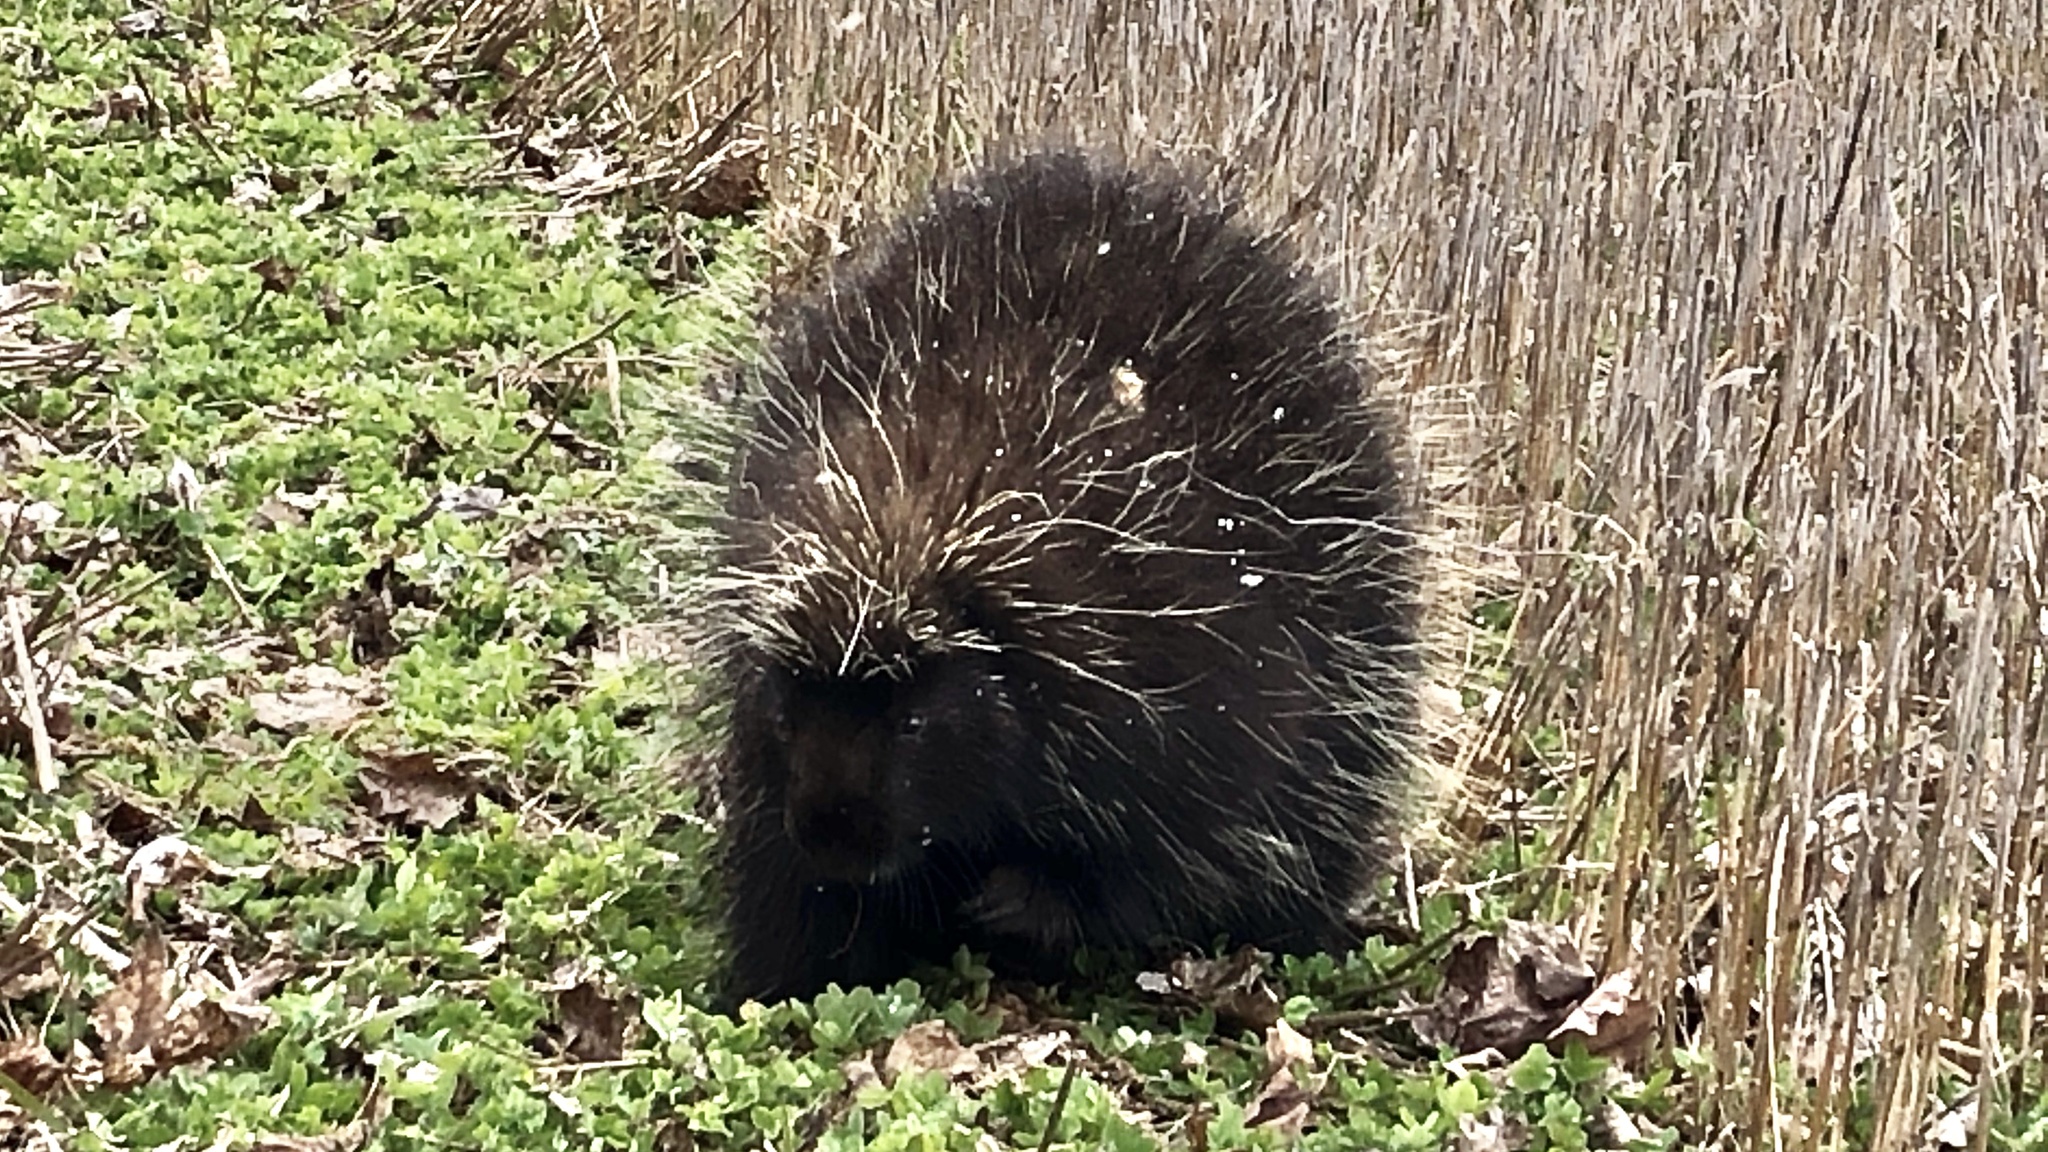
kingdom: Animalia
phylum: Chordata
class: Mammalia
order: Rodentia
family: Erethizontidae
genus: Erethizon
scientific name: Erethizon dorsatus
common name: North american porcupine
